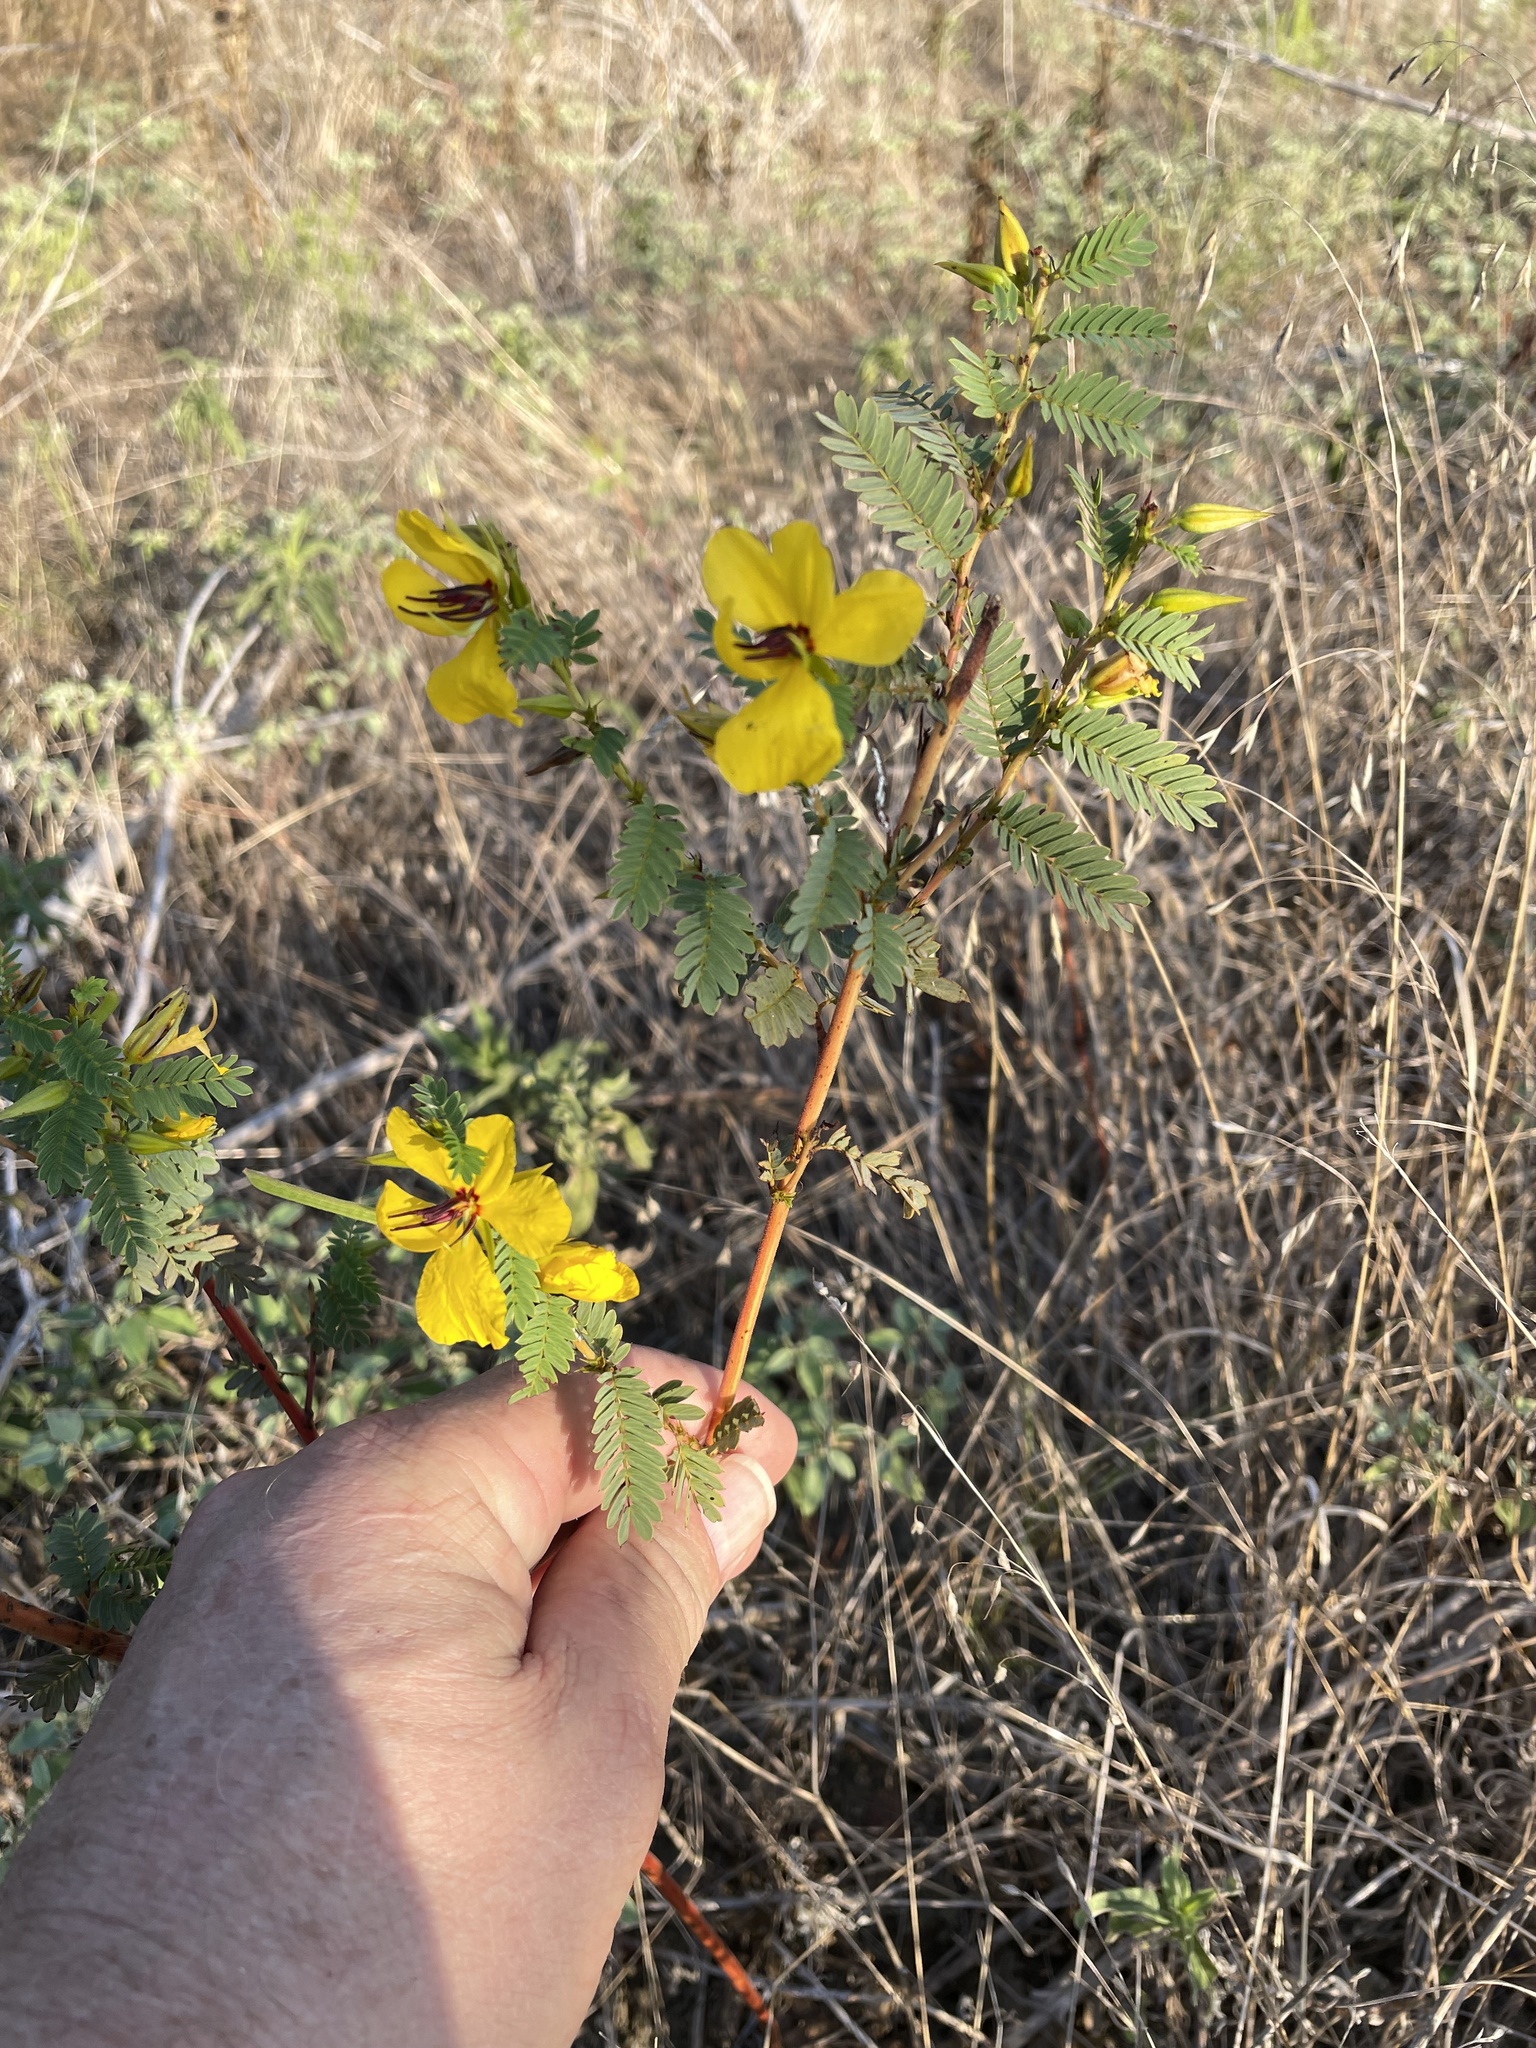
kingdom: Plantae
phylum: Tracheophyta
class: Magnoliopsida
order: Fabales
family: Fabaceae
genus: Chamaecrista
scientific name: Chamaecrista fasciculata
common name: Golden cassia
